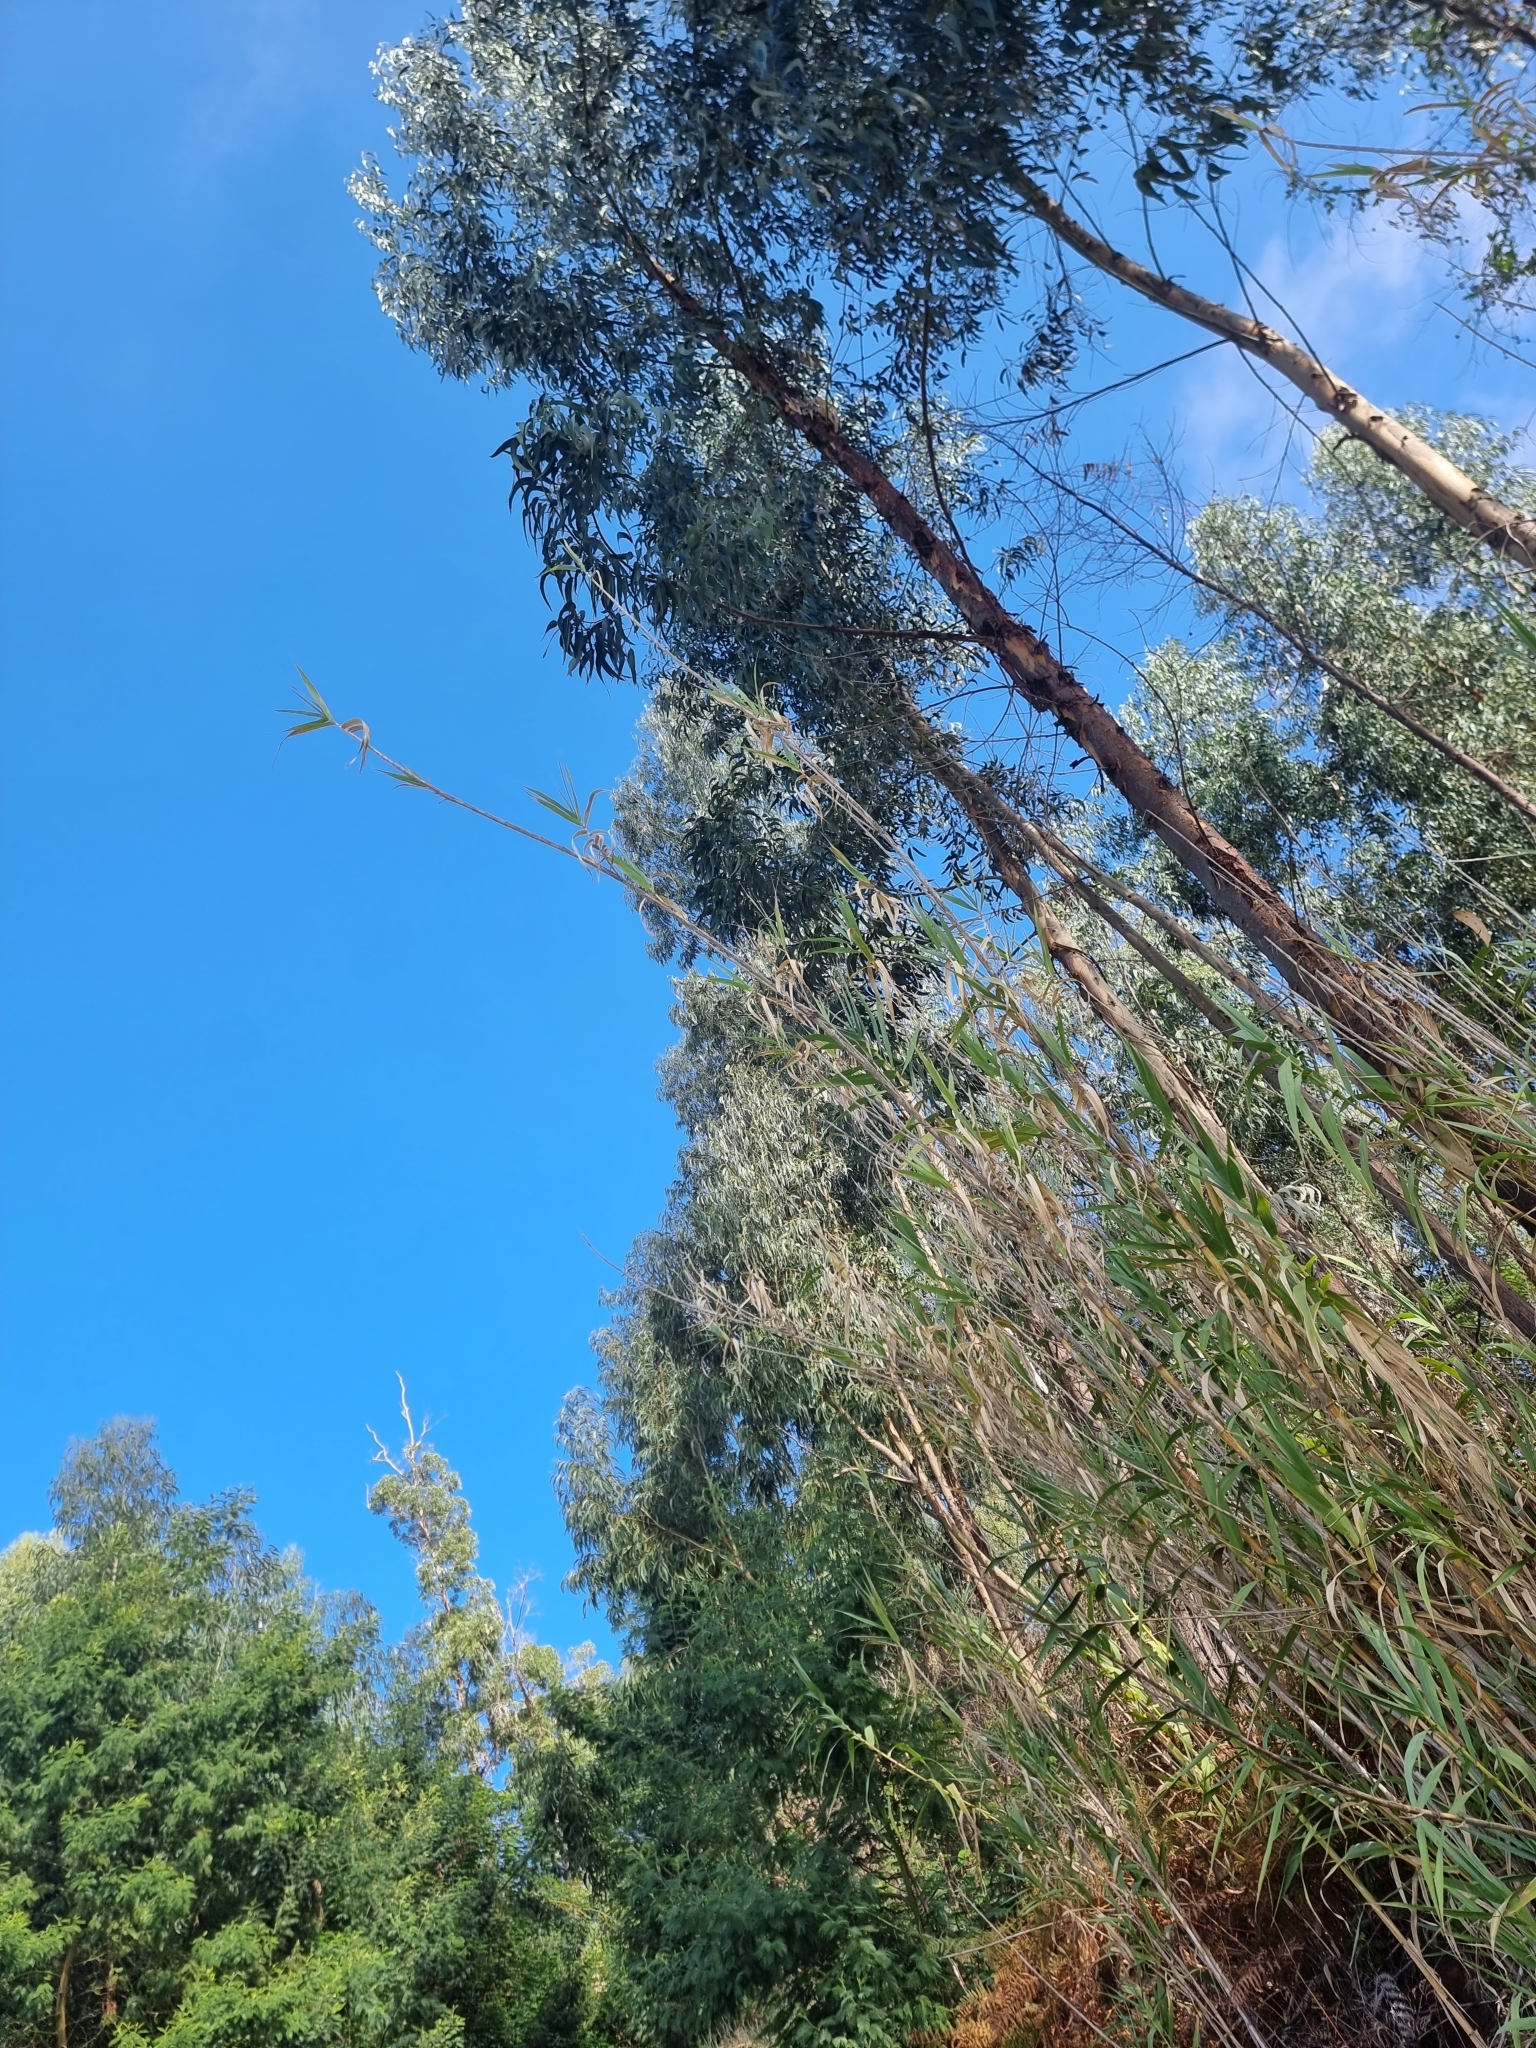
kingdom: Plantae
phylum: Tracheophyta
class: Magnoliopsida
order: Myrtales
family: Myrtaceae
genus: Eucalyptus
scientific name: Eucalyptus globulus
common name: Southern blue-gum
